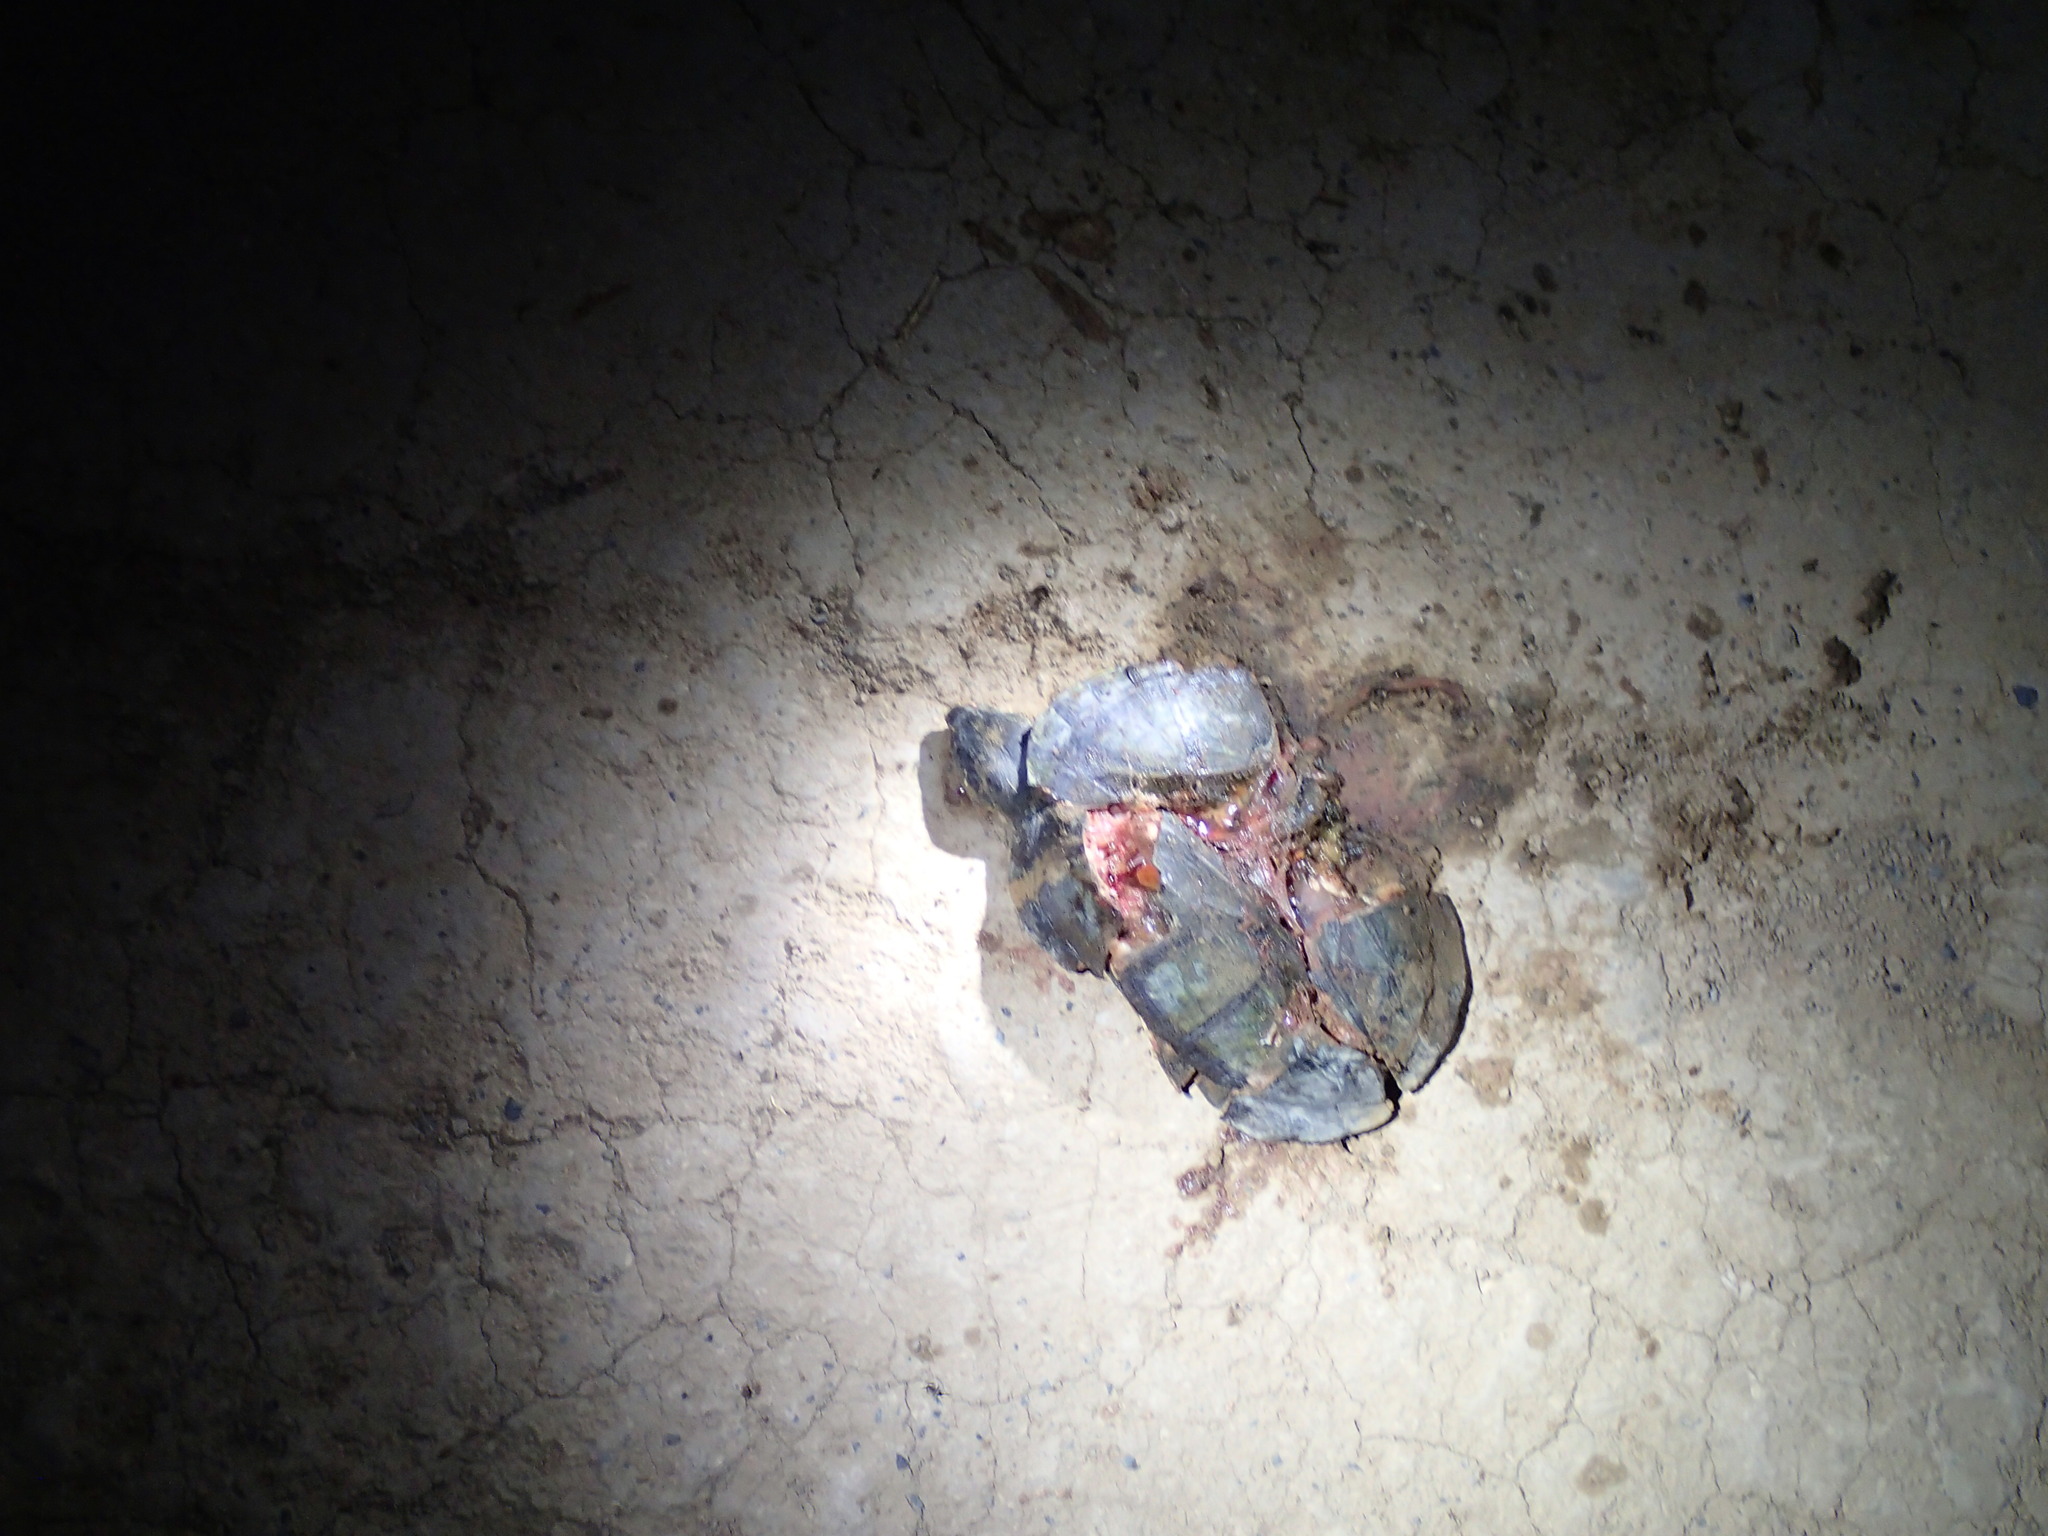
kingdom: Animalia
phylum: Chordata
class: Testudines
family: Kinosternidae
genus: Kinosternon
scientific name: Kinosternon scorpioides
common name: Scorpion mud turtle
